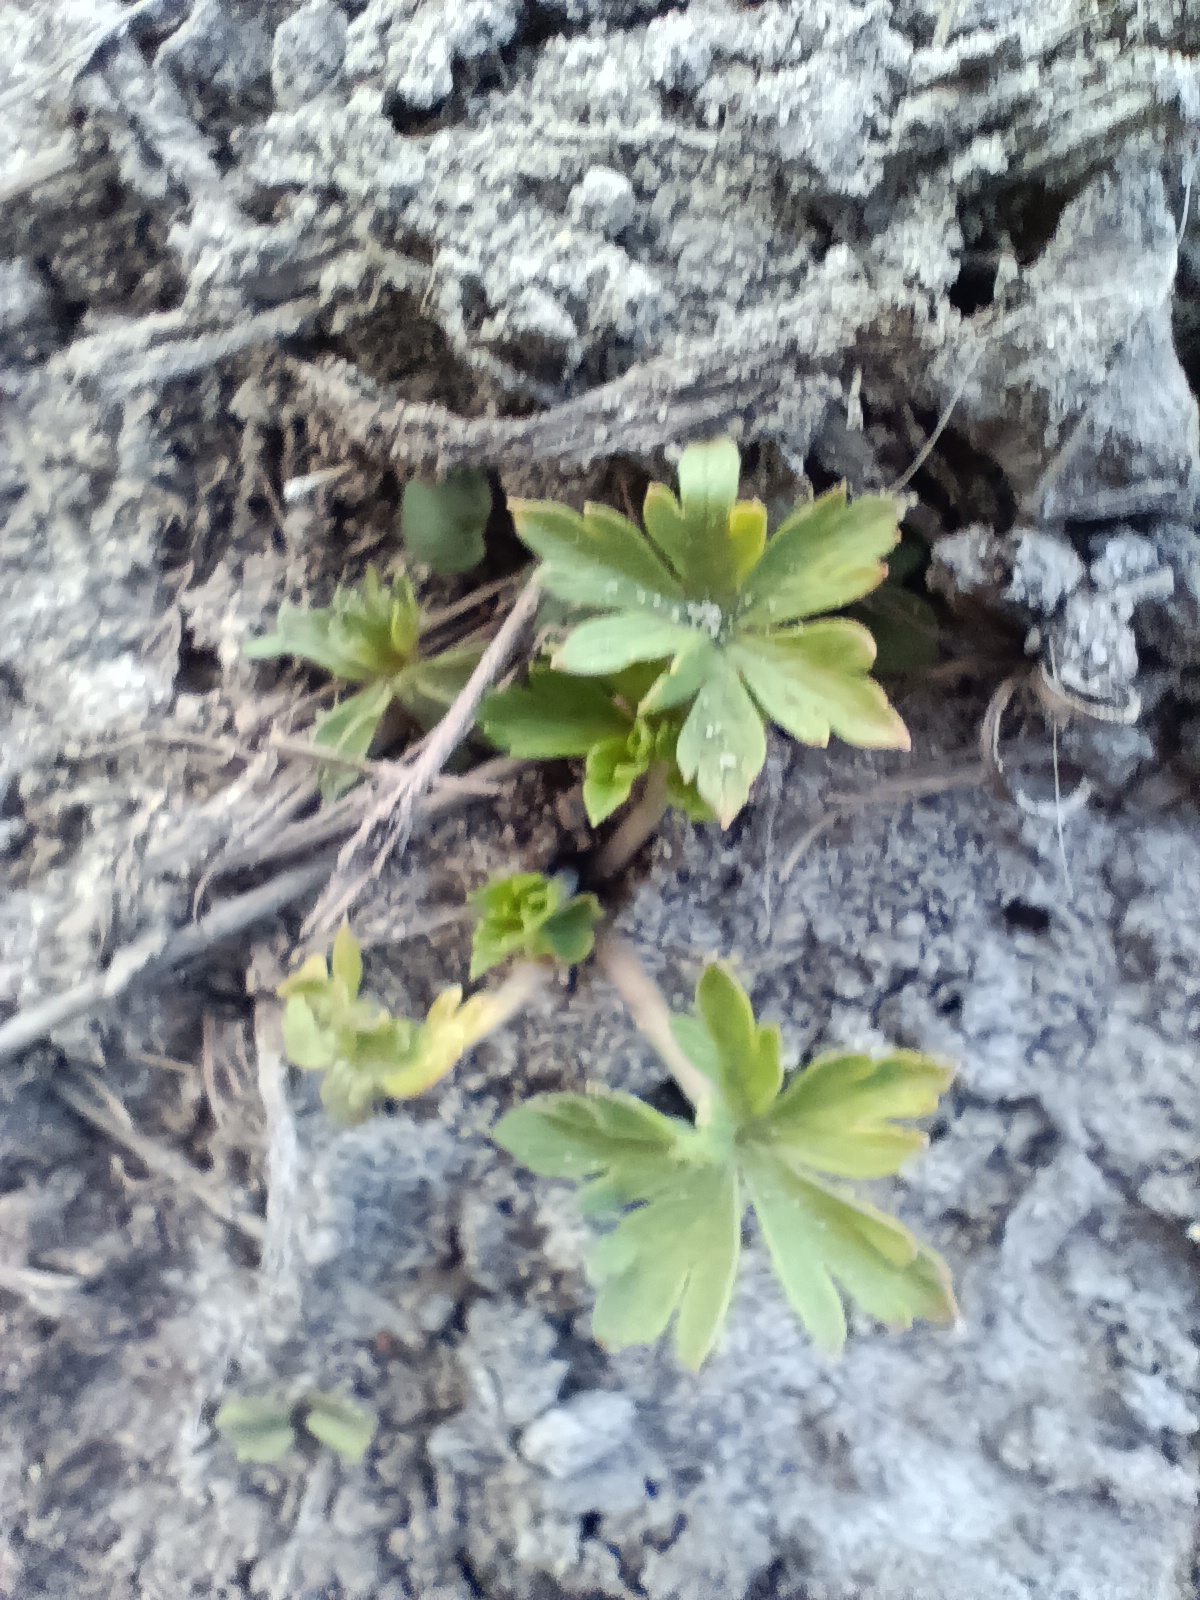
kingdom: Plantae
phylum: Tracheophyta
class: Magnoliopsida
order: Geraniales
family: Geraniaceae
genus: Geranium
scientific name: Geranium sibiricum
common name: Siberian crane's-bill
